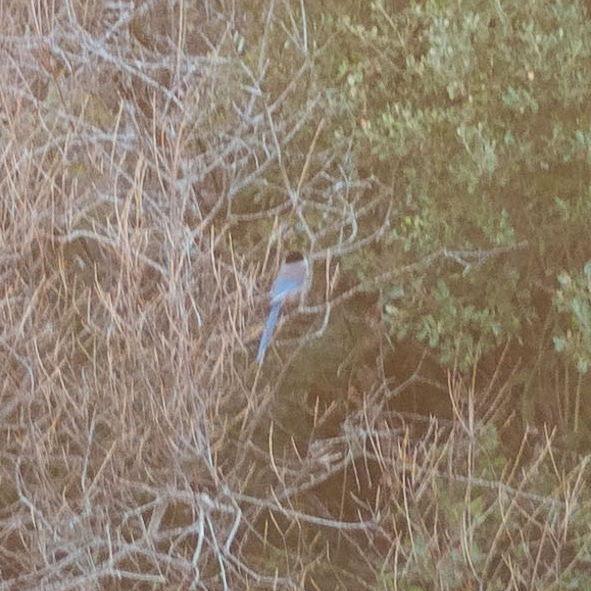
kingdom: Animalia
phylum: Chordata
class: Aves
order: Passeriformes
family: Corvidae
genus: Cyanopica
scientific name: Cyanopica cooki
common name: Iberian magpie
